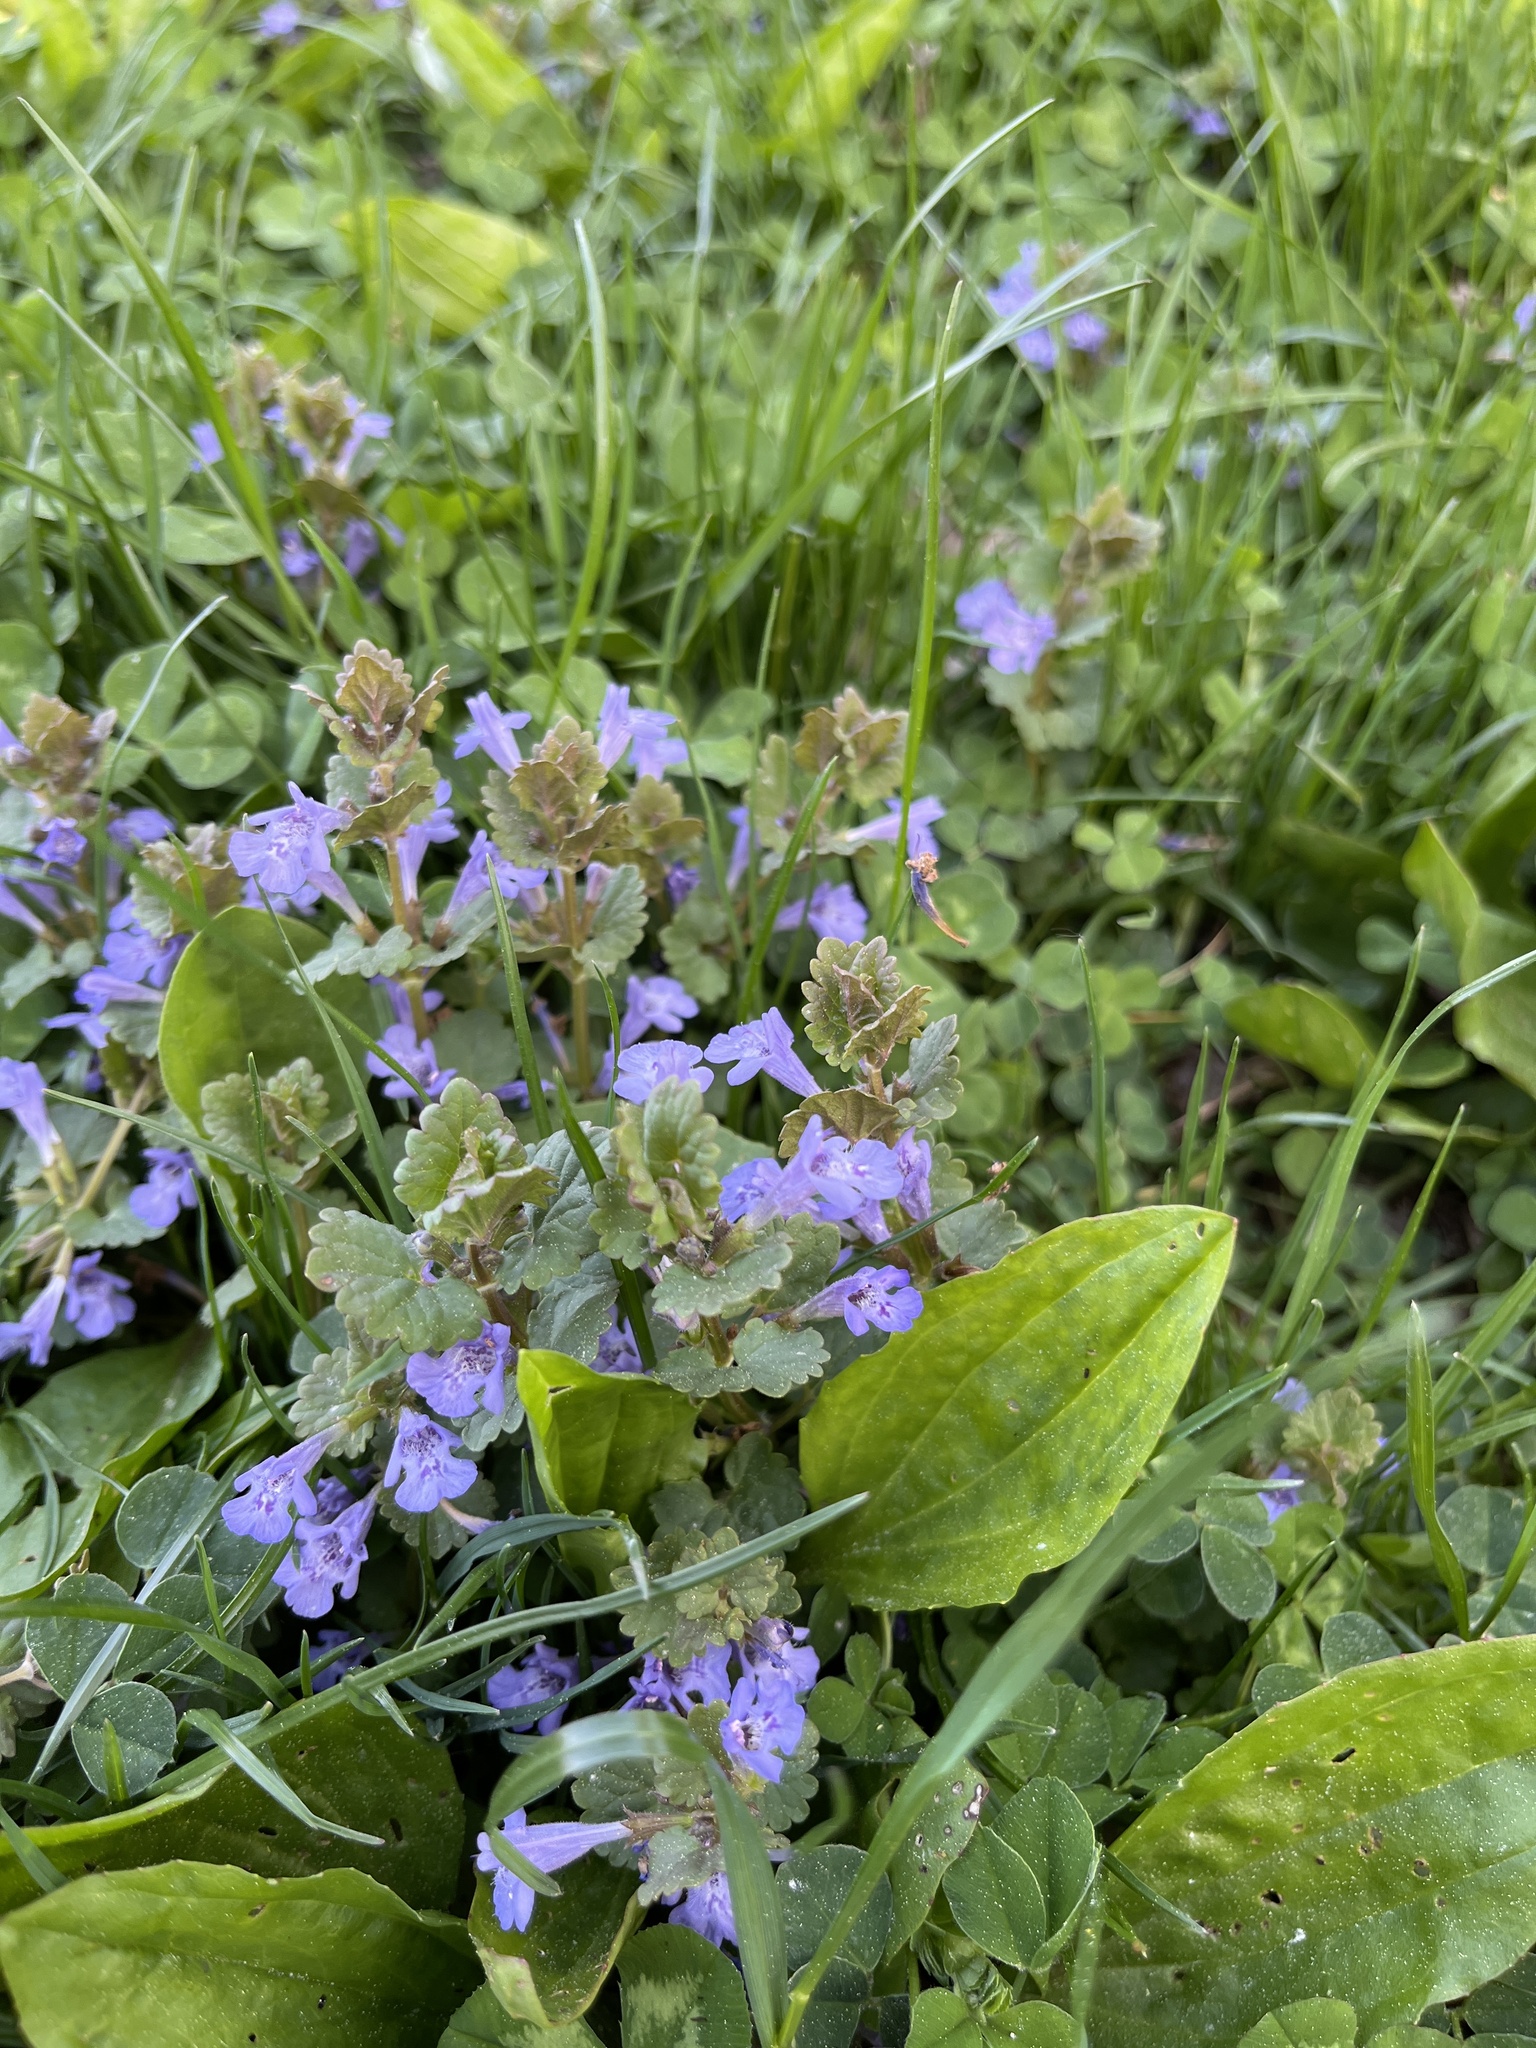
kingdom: Plantae
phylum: Tracheophyta
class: Magnoliopsida
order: Lamiales
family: Lamiaceae
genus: Glechoma
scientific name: Glechoma hederacea
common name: Ground ivy
